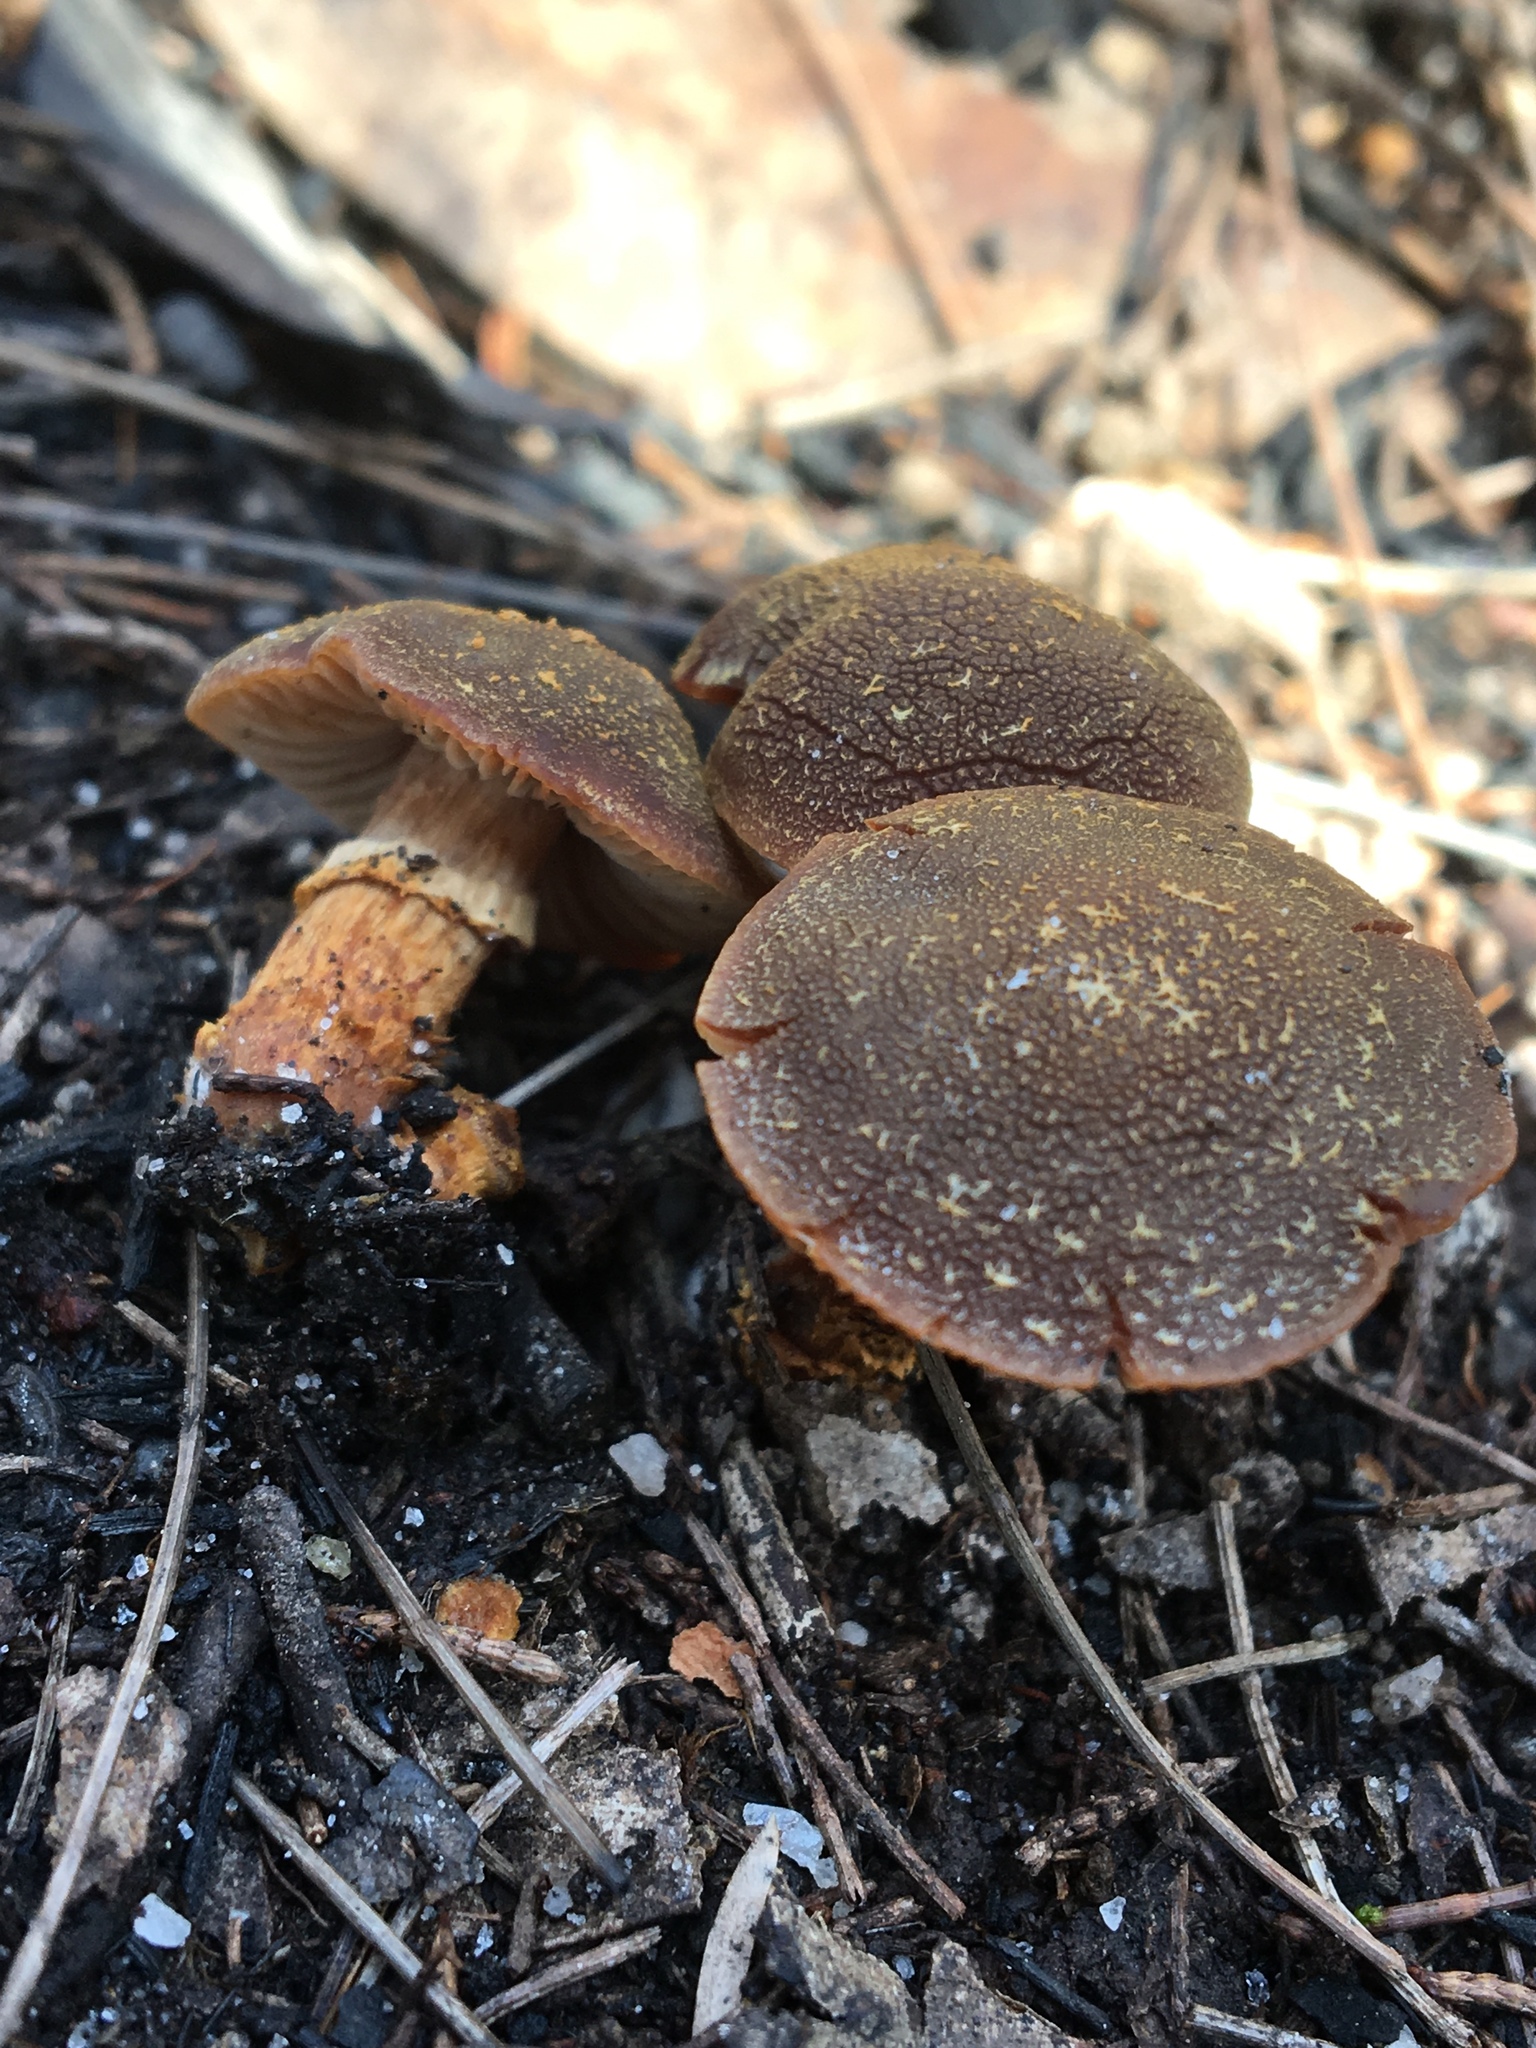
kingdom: Fungi
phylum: Basidiomycota
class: Agaricomycetes
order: Agaricales
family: Bolbitiaceae
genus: Descolea
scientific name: Descolea recedens
